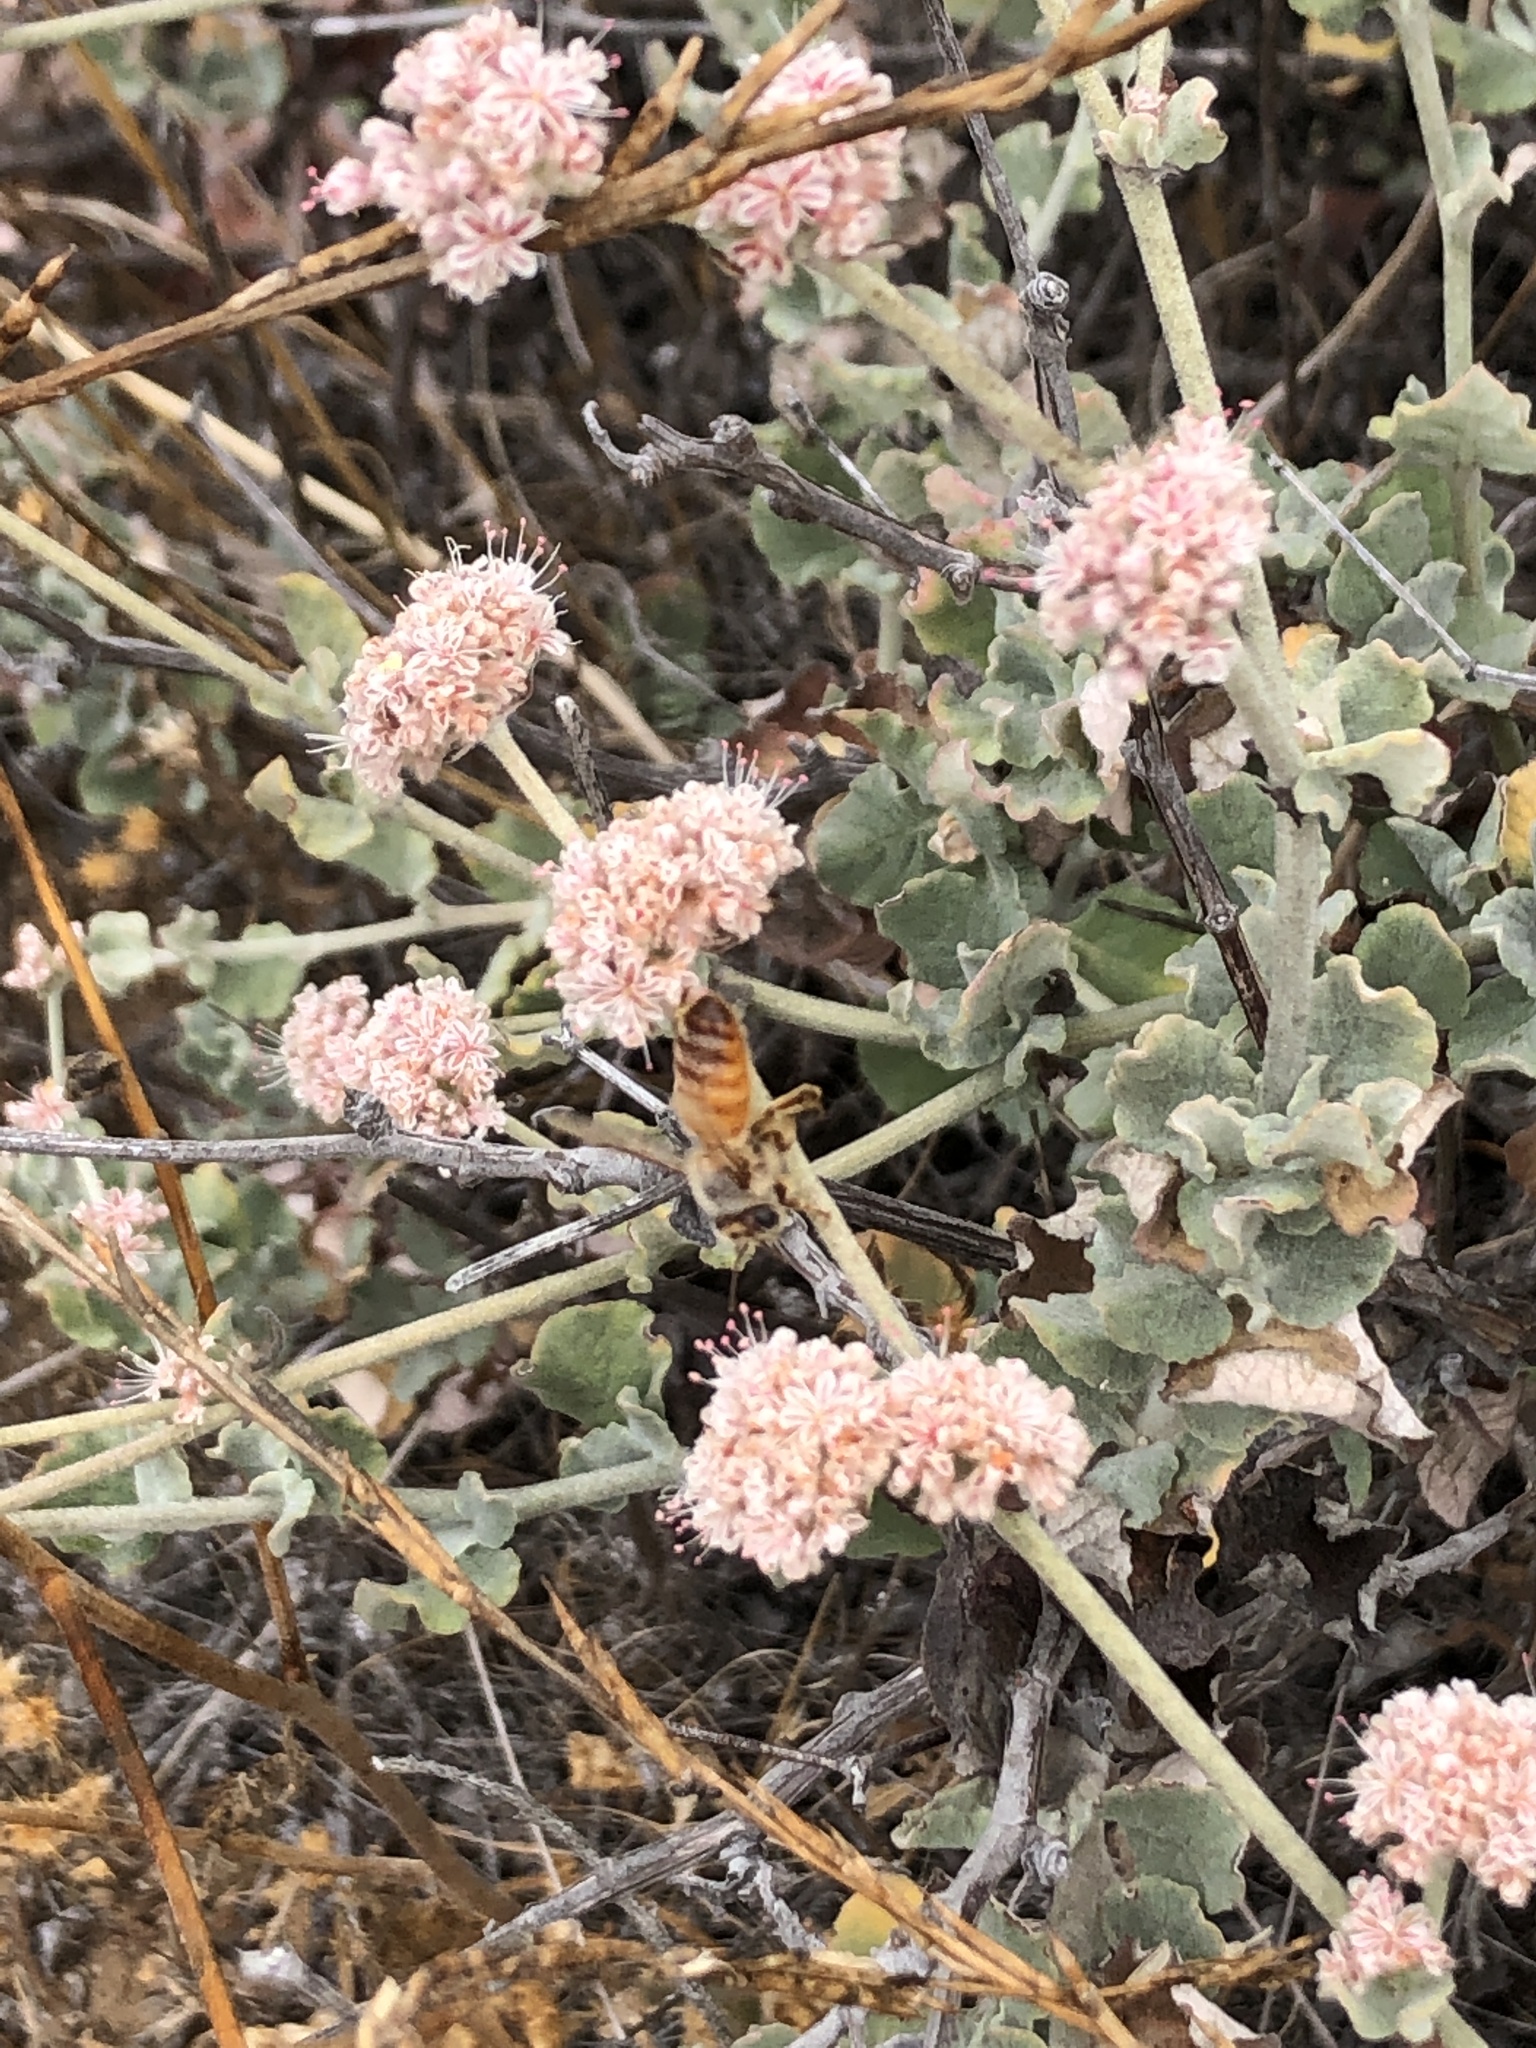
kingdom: Animalia
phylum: Arthropoda
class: Insecta
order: Hymenoptera
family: Apidae
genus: Apis
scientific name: Apis mellifera
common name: Honey bee
